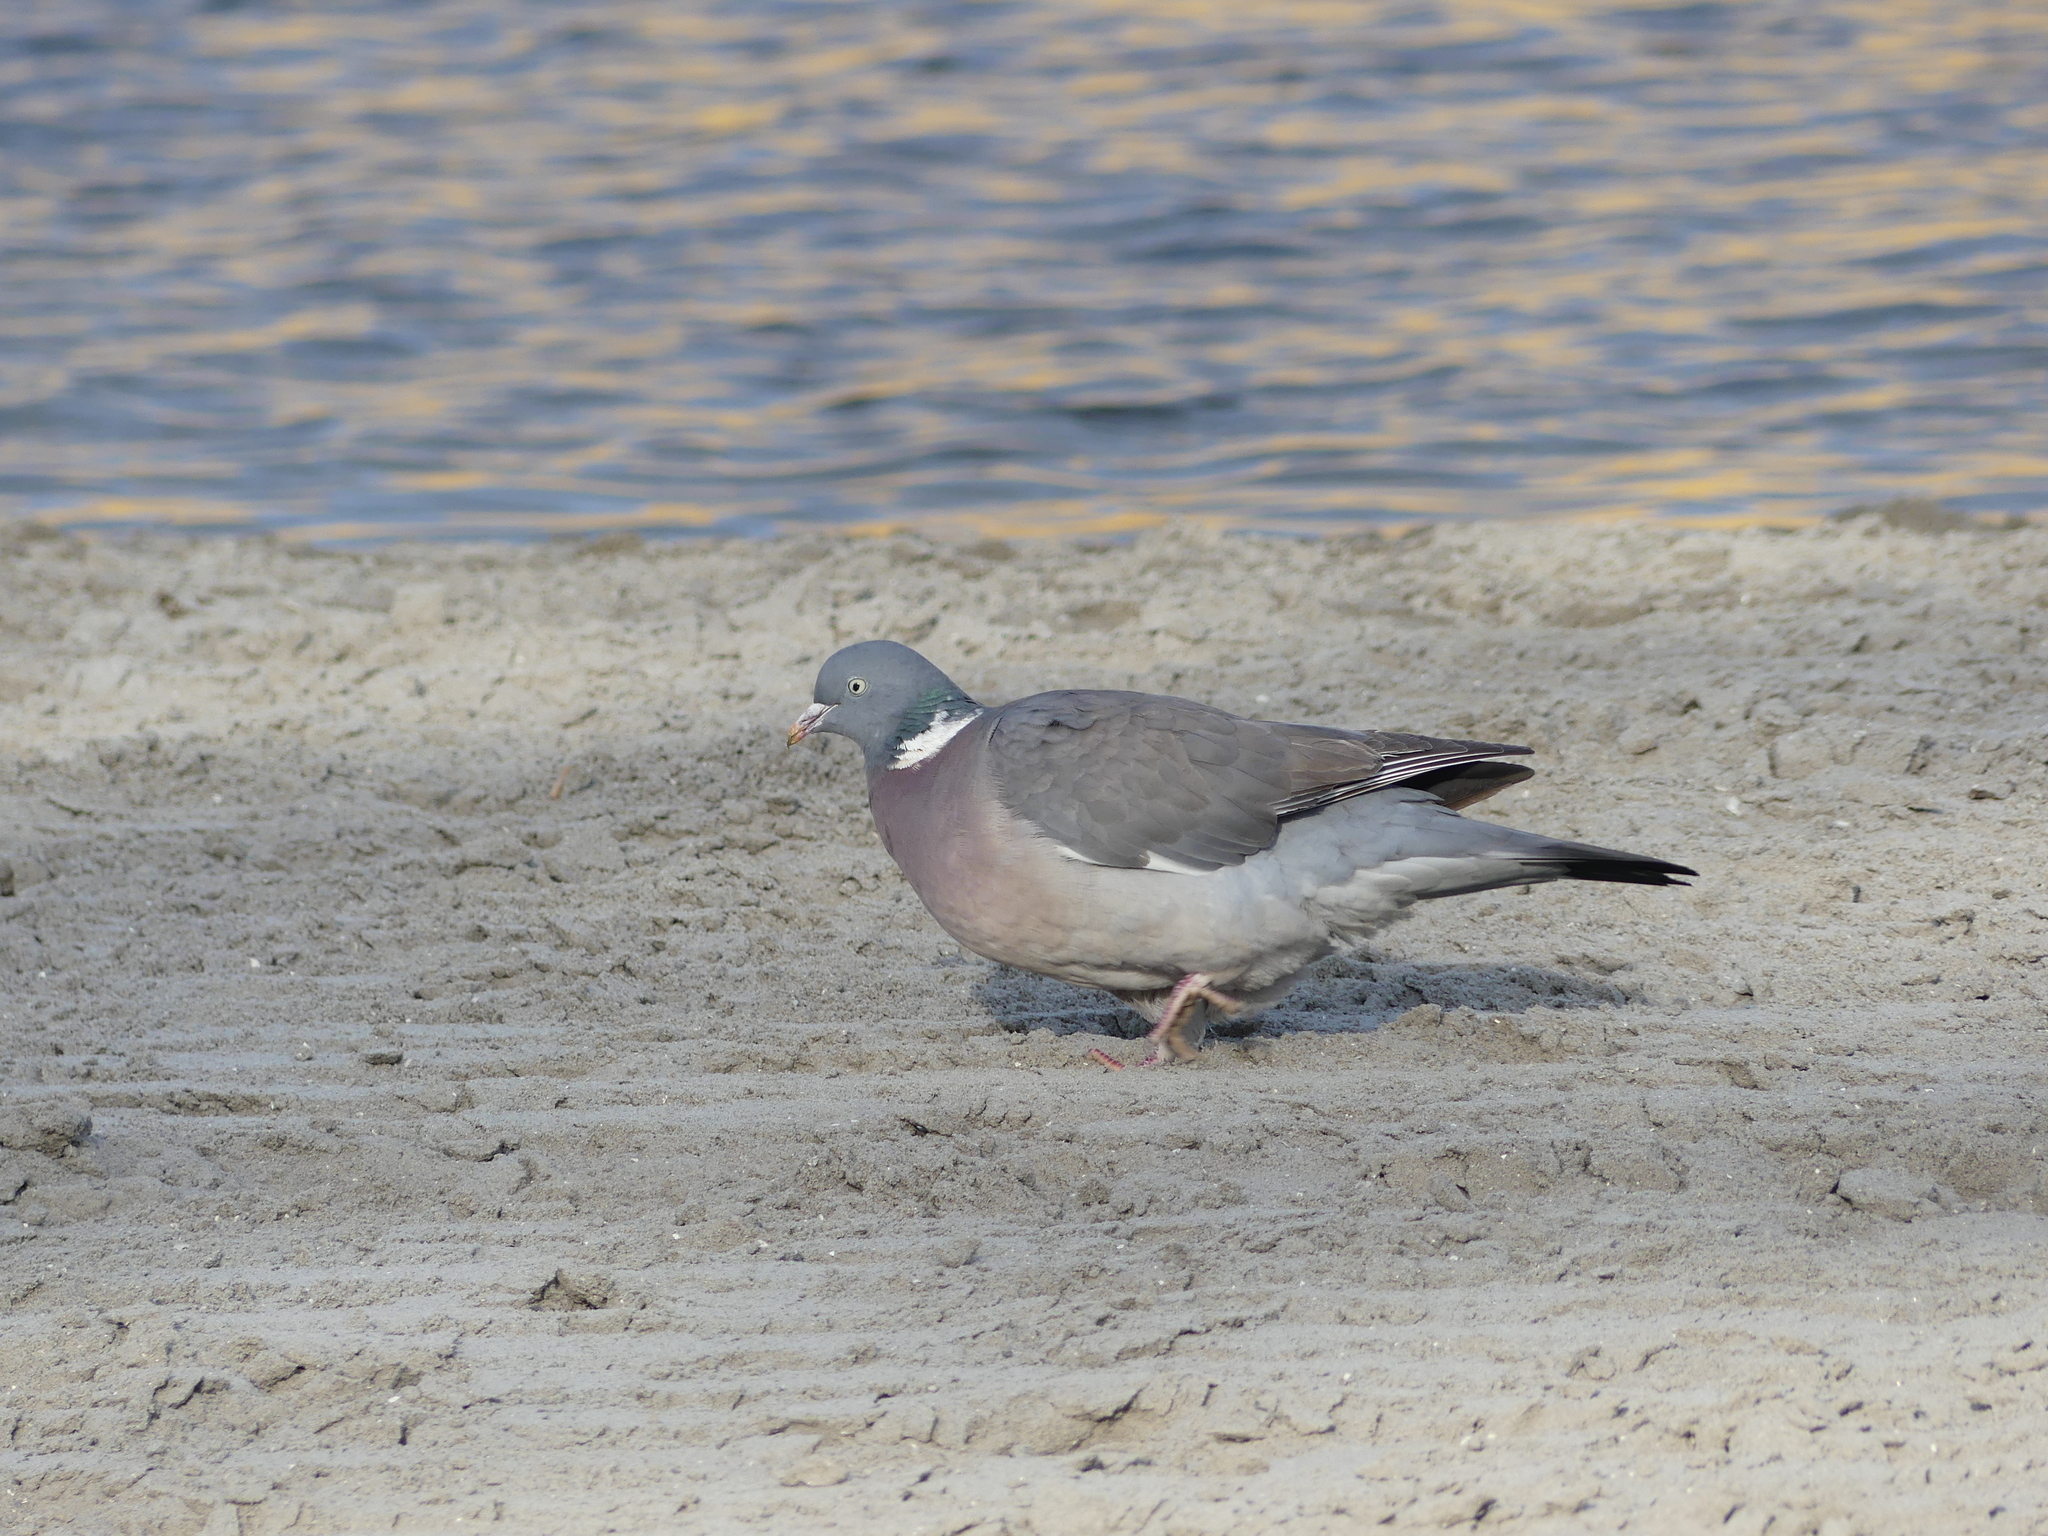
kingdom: Animalia
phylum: Chordata
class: Aves
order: Columbiformes
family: Columbidae
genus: Columba
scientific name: Columba palumbus
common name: Common wood pigeon
